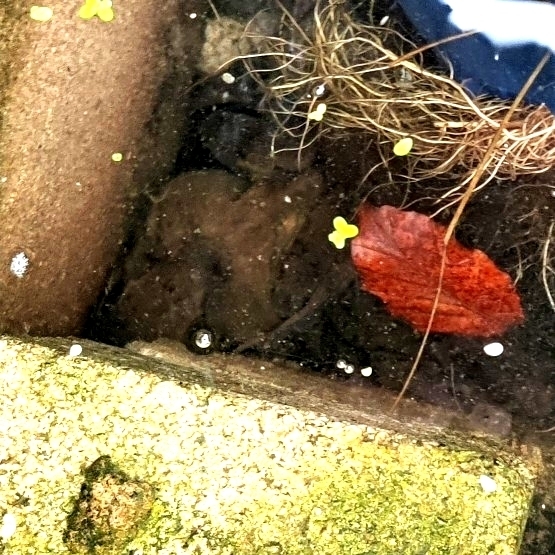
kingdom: Animalia
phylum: Chordata
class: Amphibia
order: Anura
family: Bufonidae
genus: Bufo
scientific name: Bufo bufo
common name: Common toad
